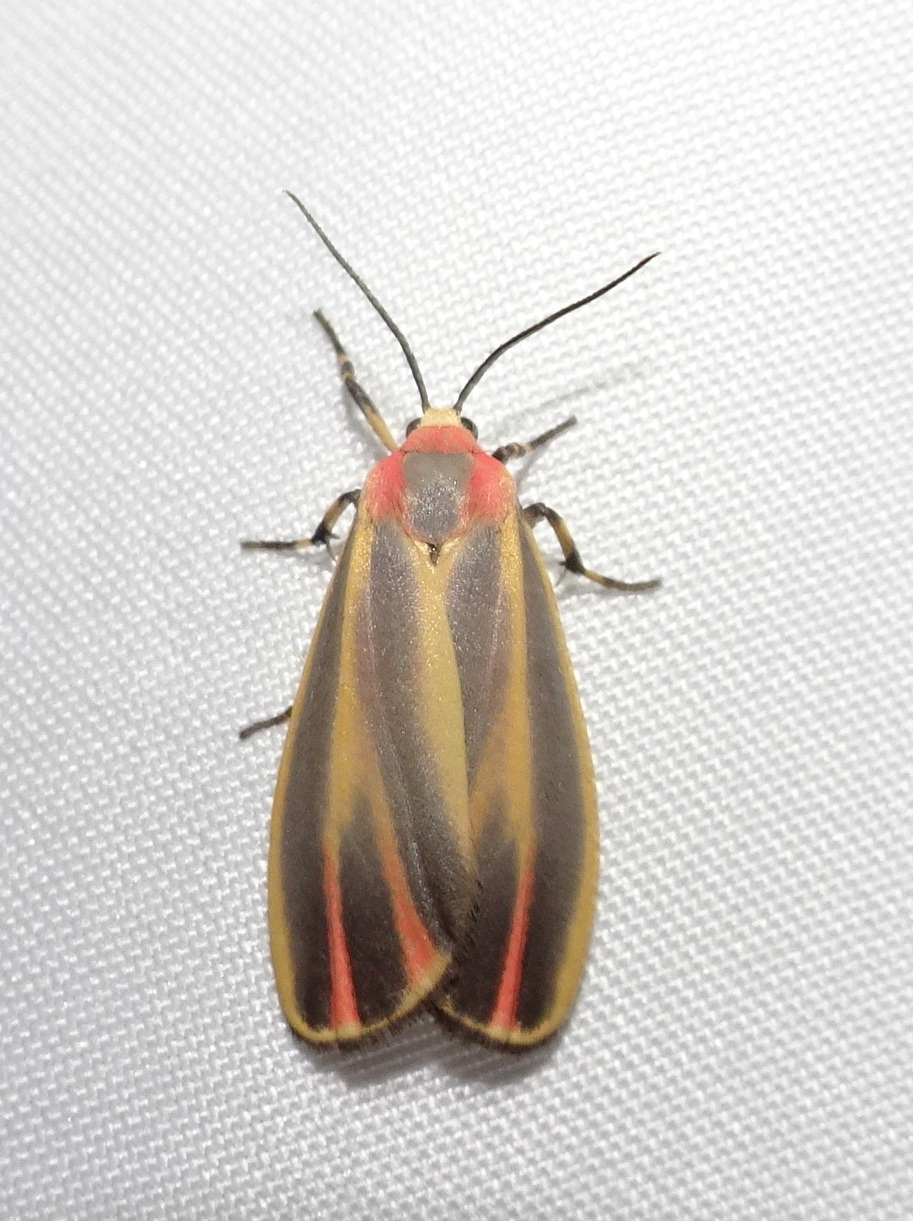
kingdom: Animalia
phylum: Arthropoda
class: Insecta
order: Lepidoptera
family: Erebidae
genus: Hypoprepia
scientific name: Hypoprepia fucosa
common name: Painted lichen moth
